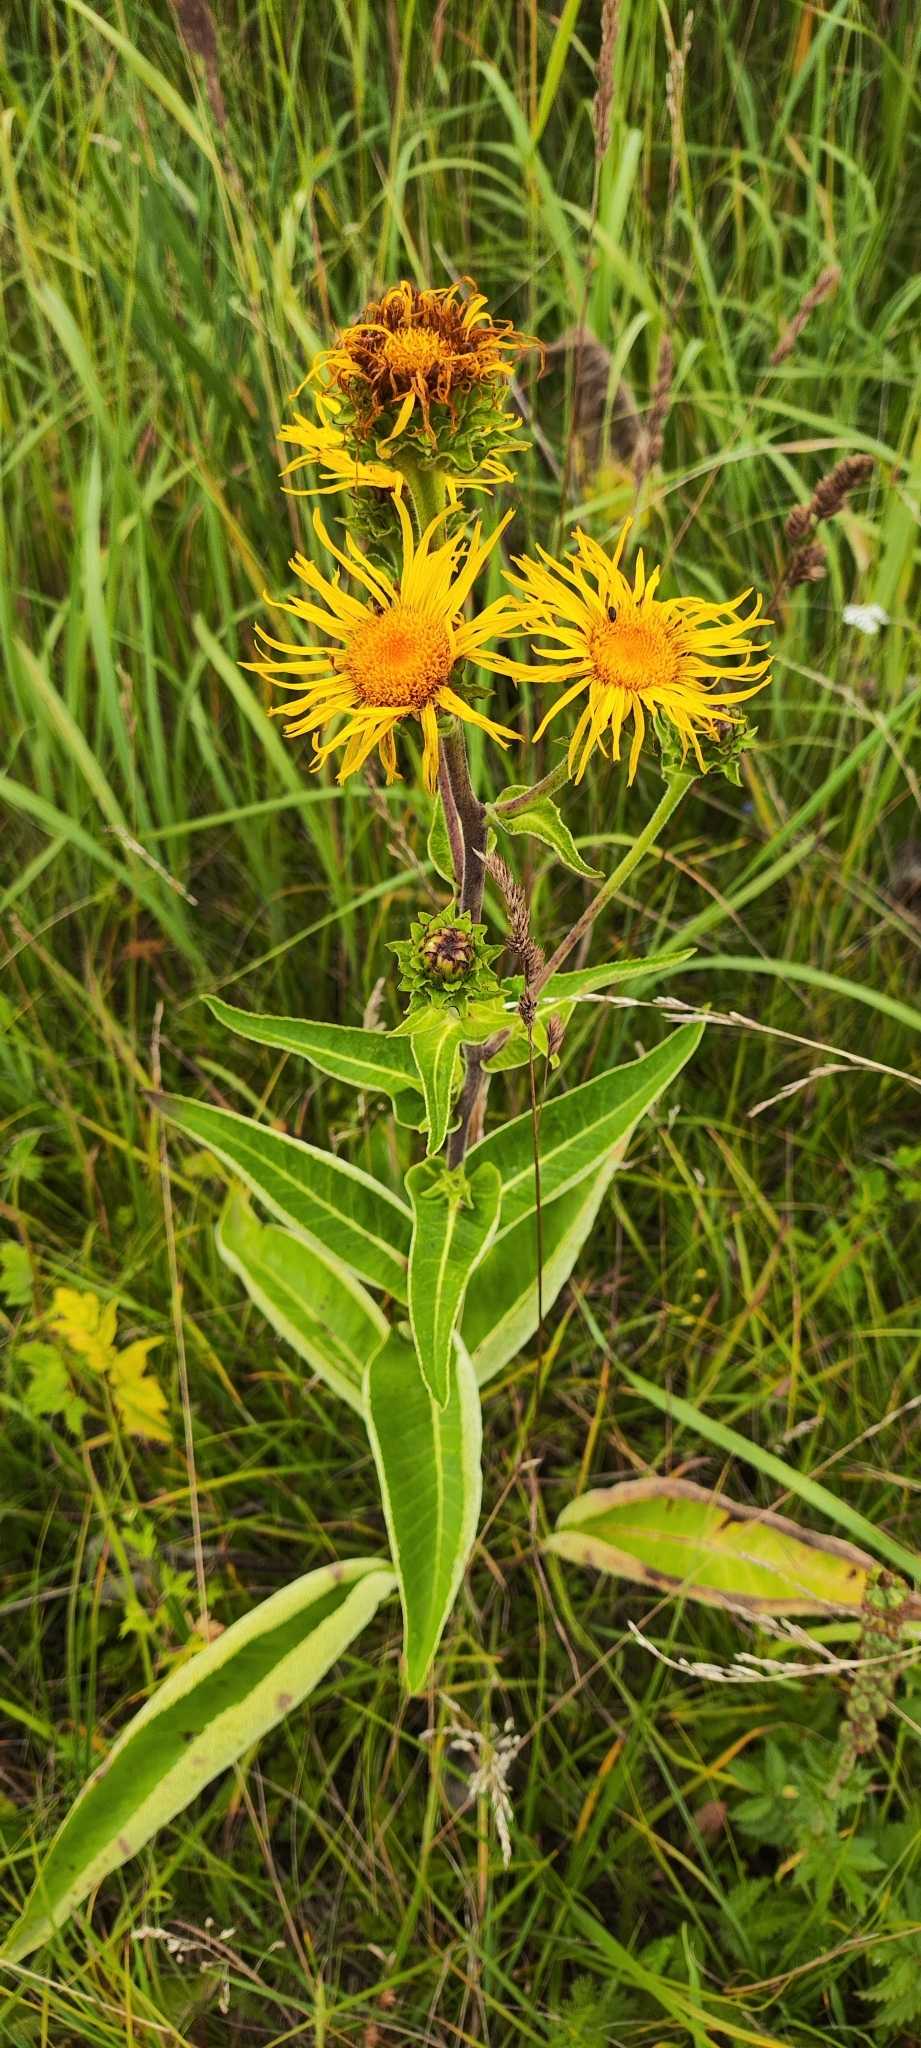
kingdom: Plantae
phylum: Tracheophyta
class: Magnoliopsida
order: Asterales
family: Asteraceae
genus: Inula
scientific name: Inula helenium
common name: Elecampane
